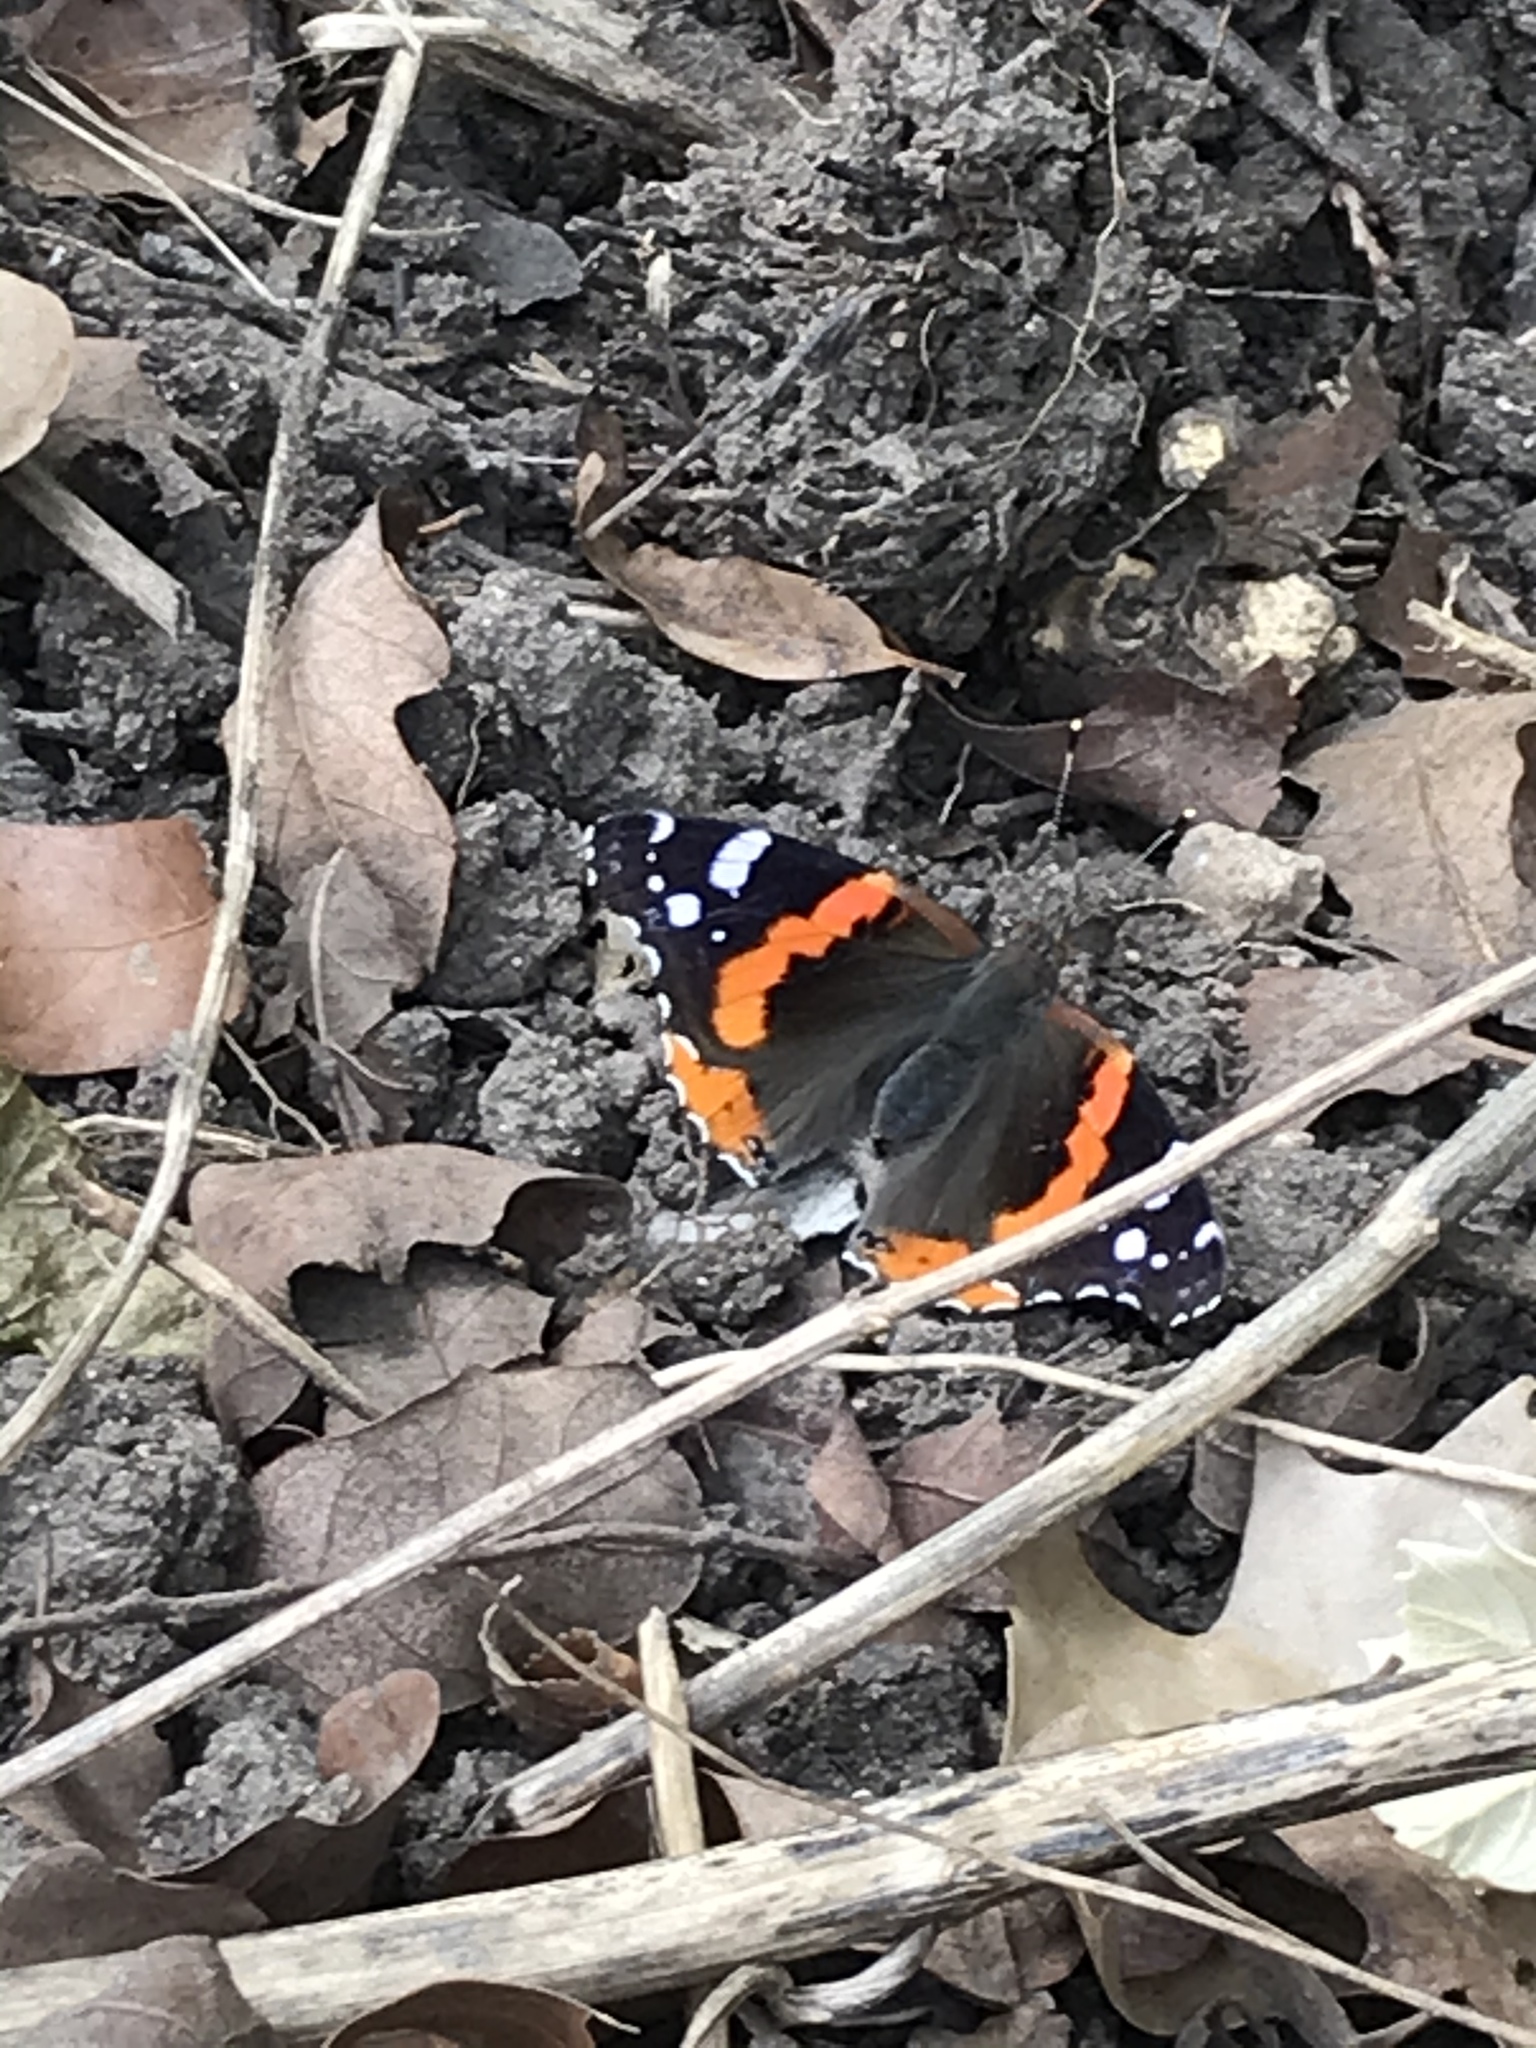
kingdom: Animalia
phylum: Arthropoda
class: Insecta
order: Lepidoptera
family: Nymphalidae
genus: Vanessa
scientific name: Vanessa atalanta
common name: Red admiral
